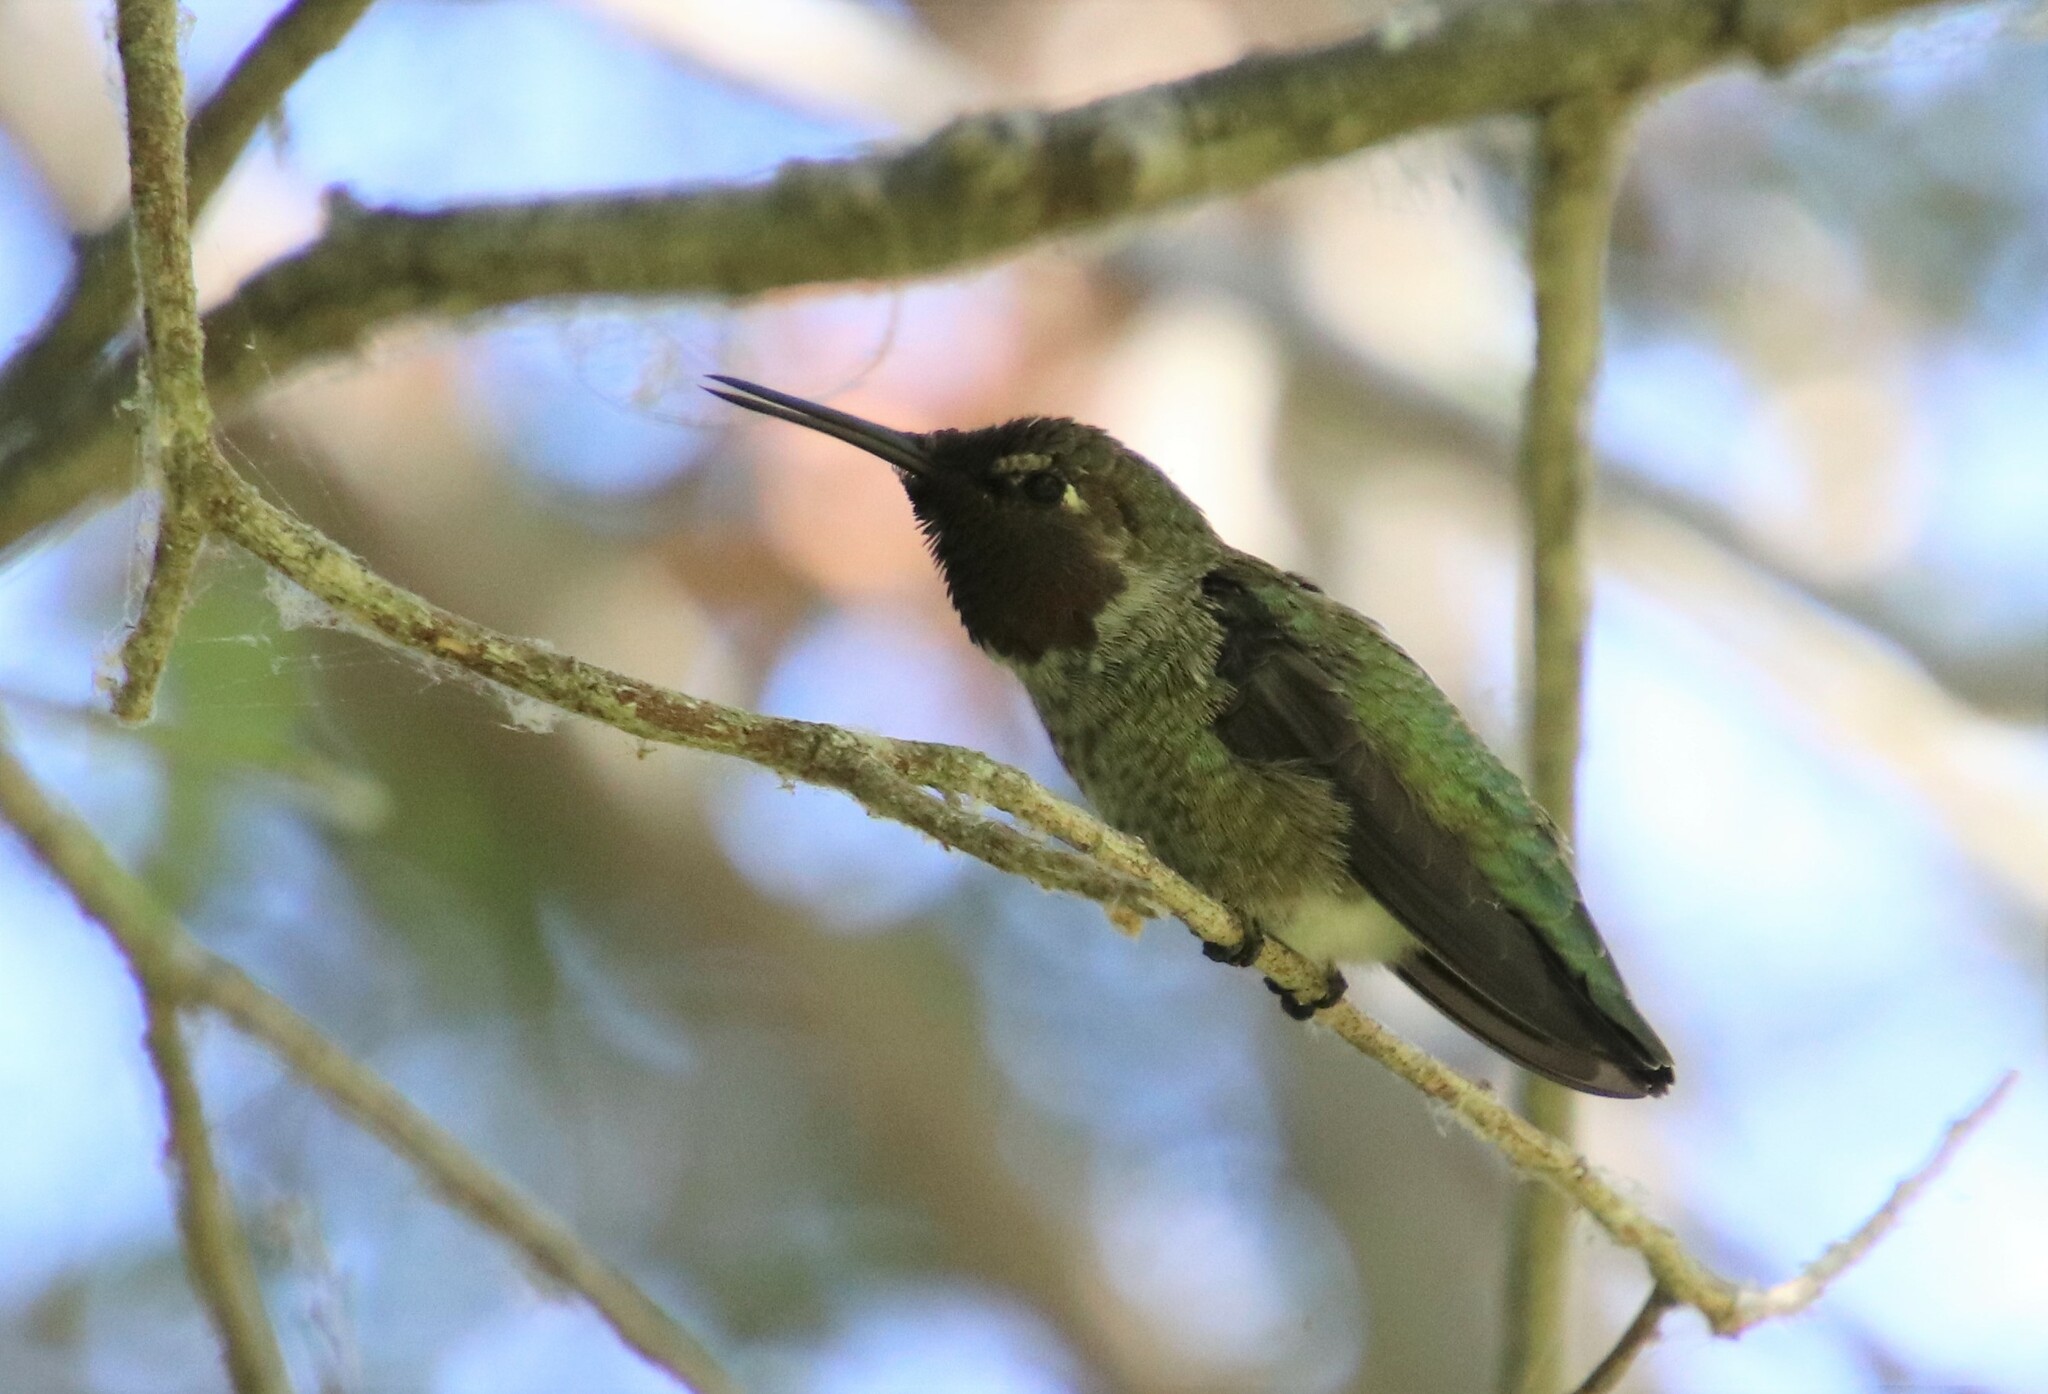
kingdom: Animalia
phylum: Chordata
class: Aves
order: Apodiformes
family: Trochilidae
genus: Calypte
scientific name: Calypte anna
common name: Anna's hummingbird
